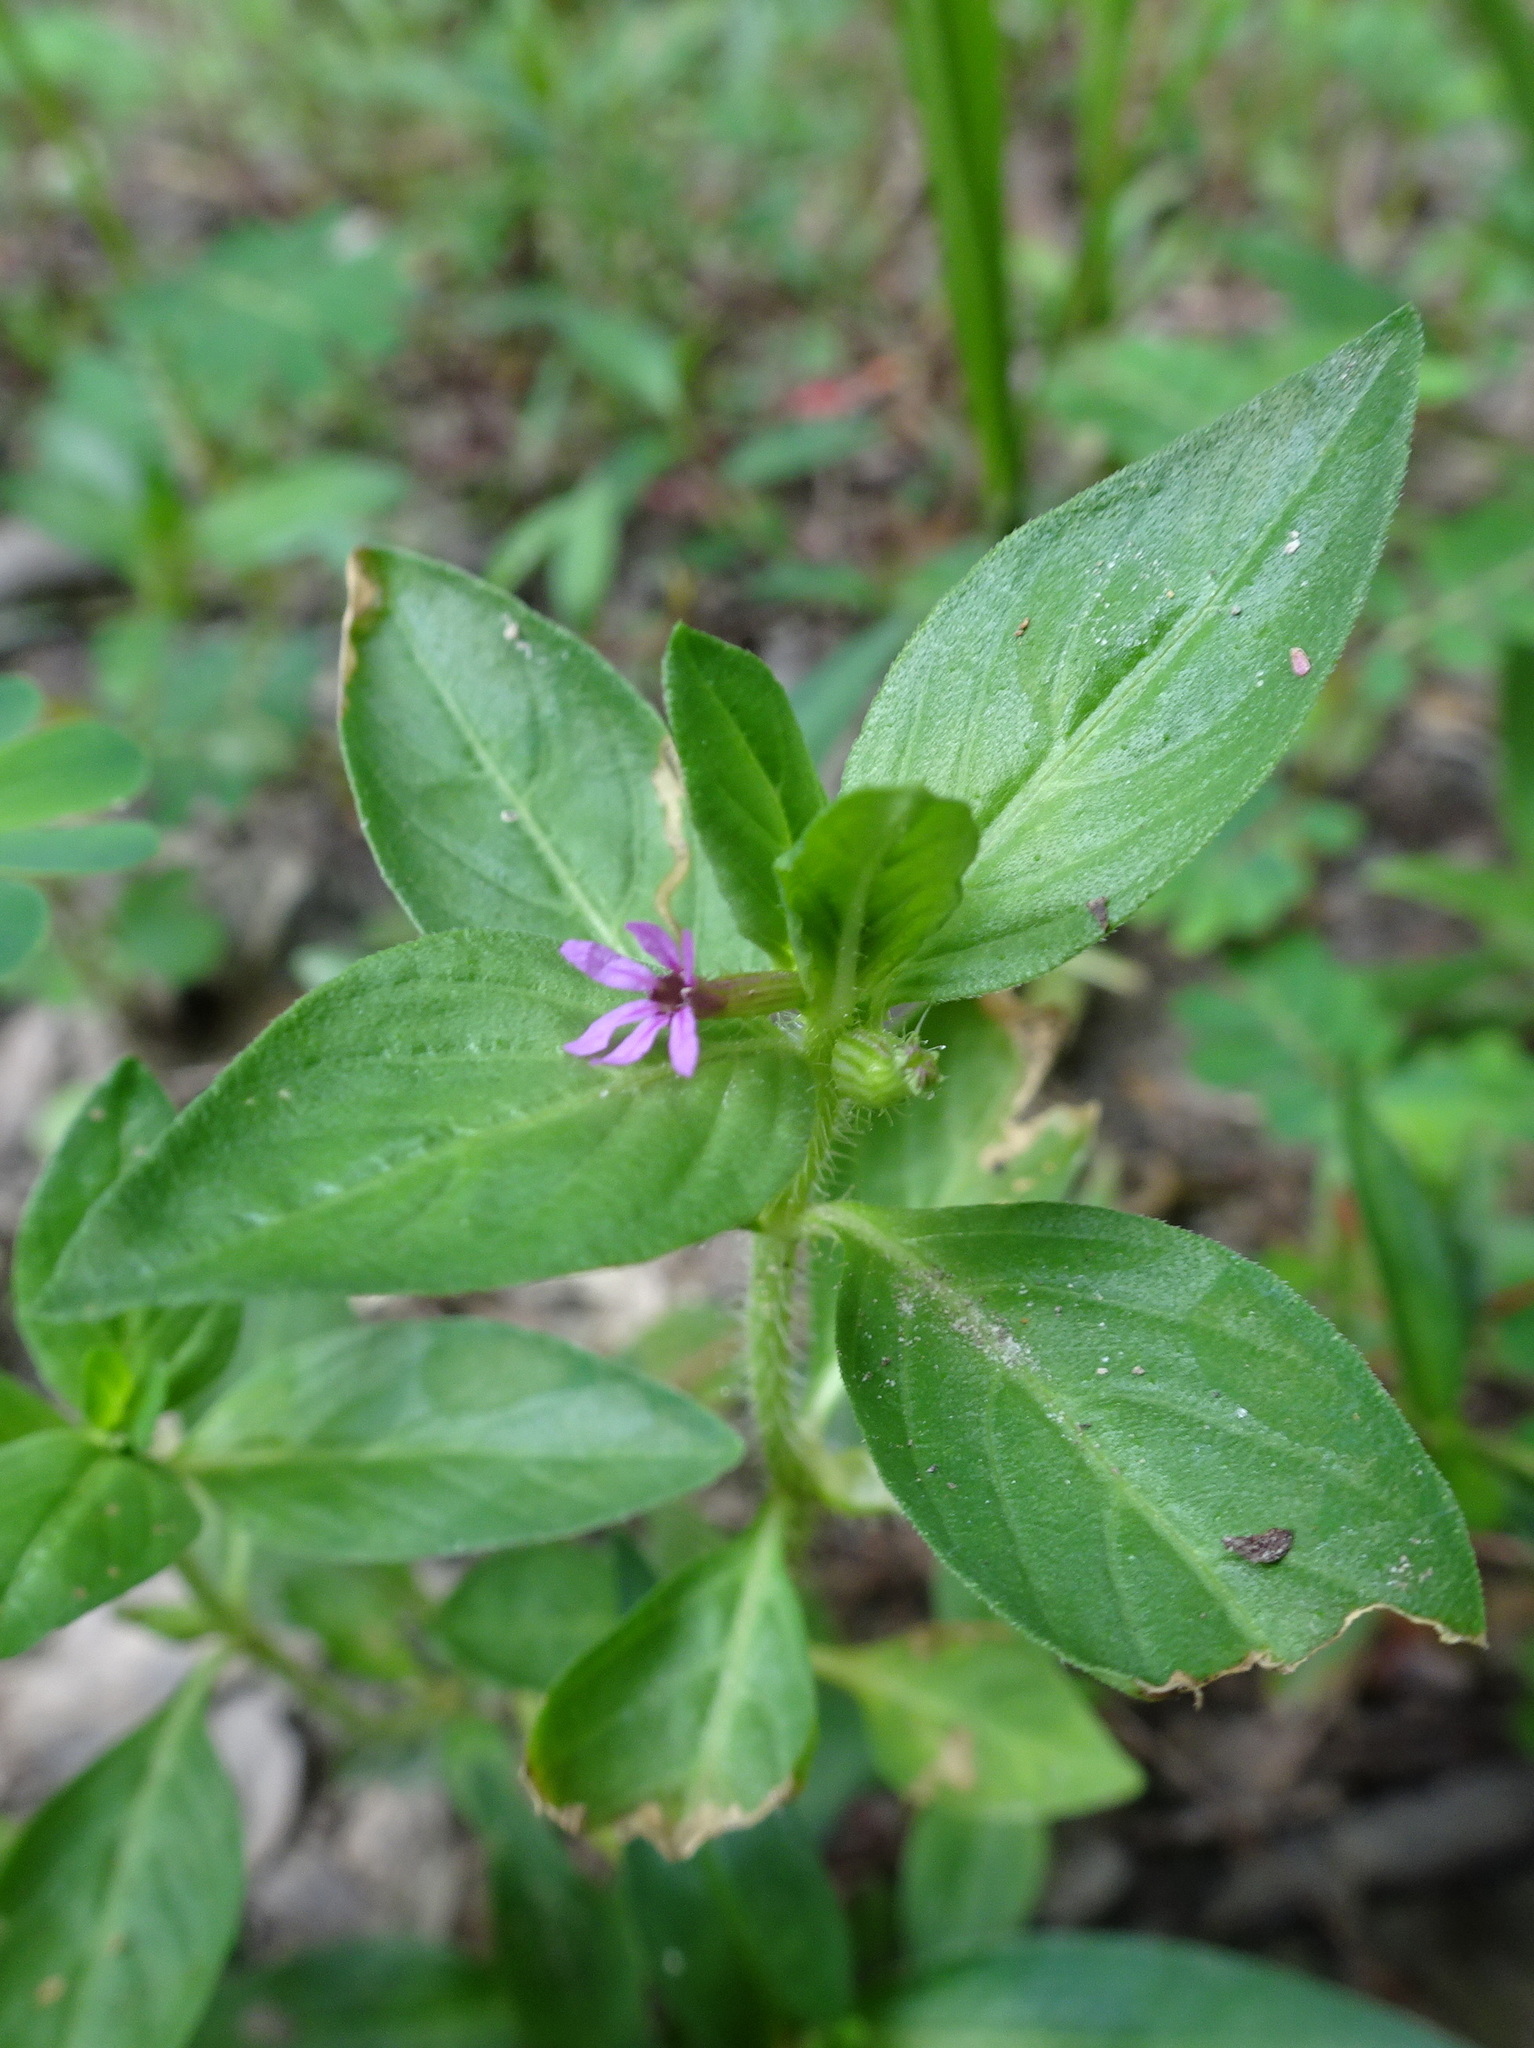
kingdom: Plantae
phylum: Tracheophyta
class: Magnoliopsida
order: Myrtales
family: Lythraceae
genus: Cuphea
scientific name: Cuphea carthagenensis
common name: Colombian waxweed
